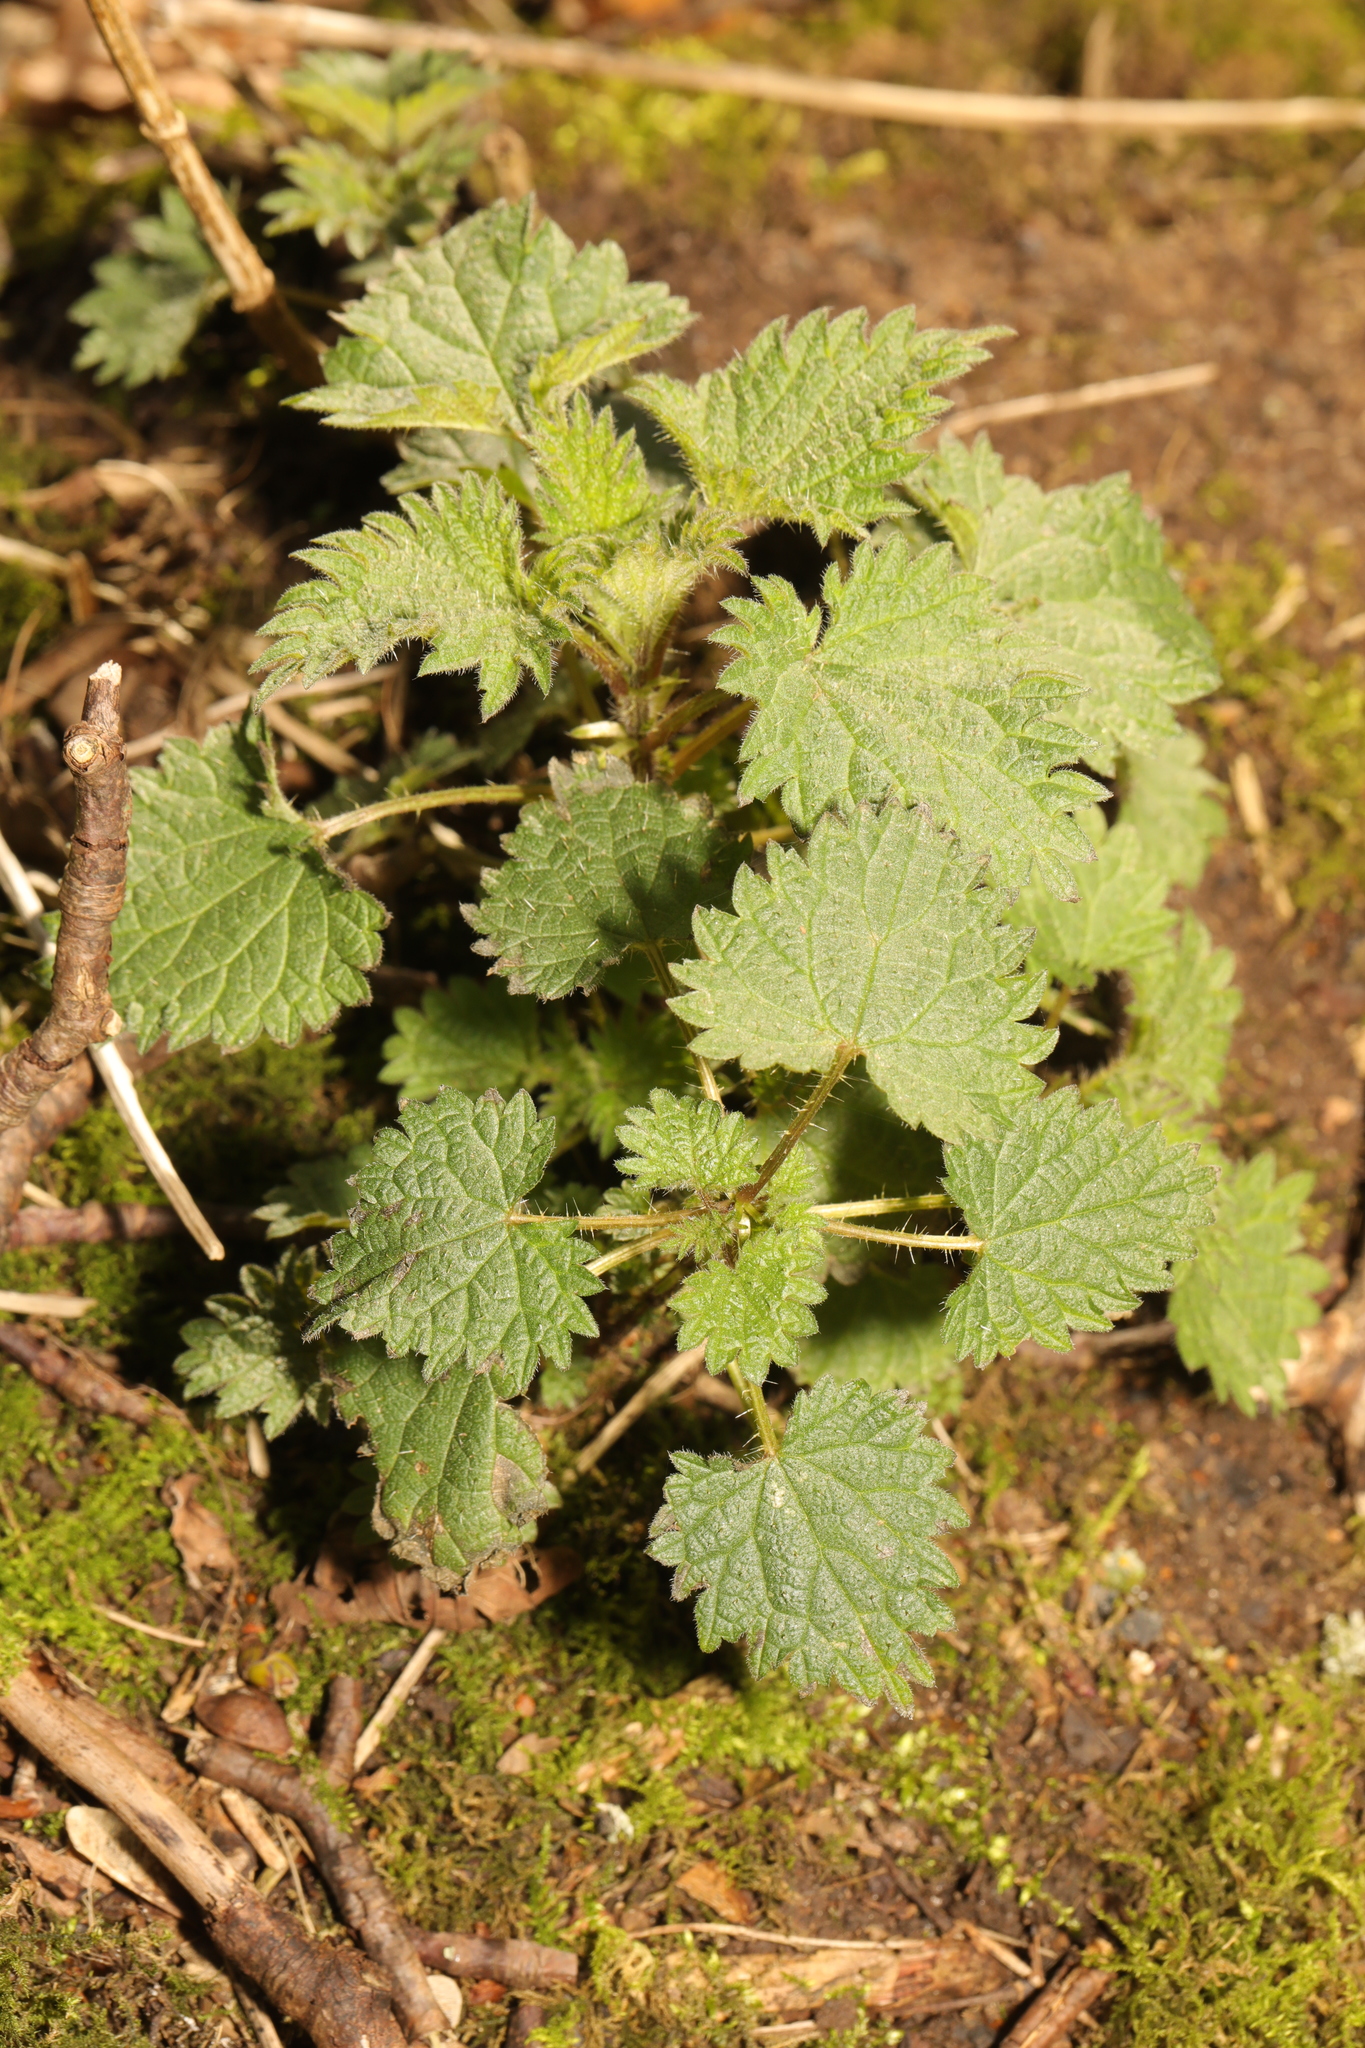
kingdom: Plantae
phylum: Tracheophyta
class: Magnoliopsida
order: Rosales
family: Urticaceae
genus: Urtica
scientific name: Urtica dioica
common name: Common nettle
